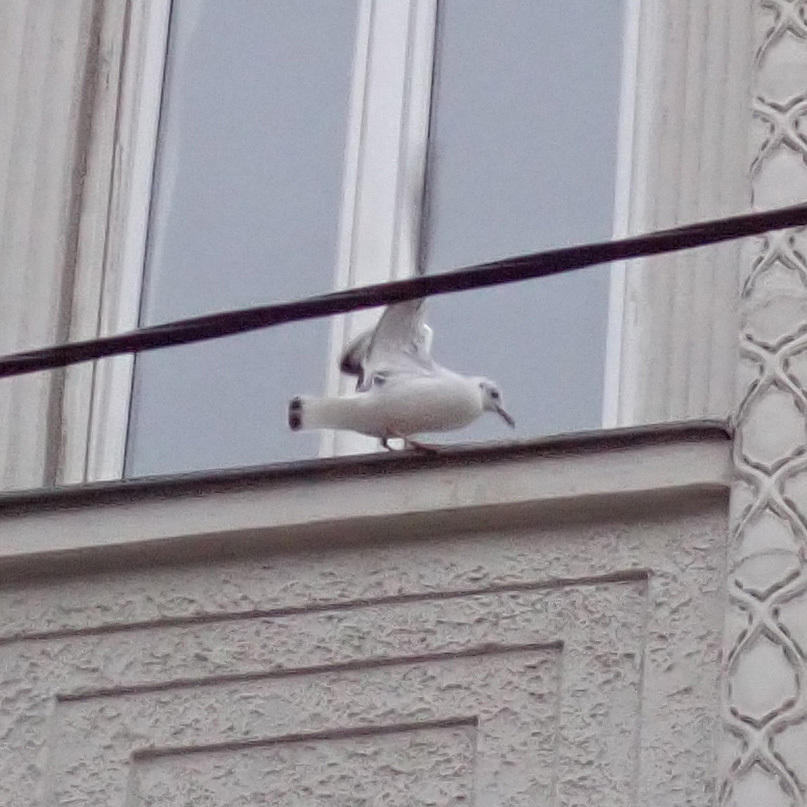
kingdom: Animalia
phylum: Chordata
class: Aves
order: Charadriiformes
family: Laridae
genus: Chroicocephalus
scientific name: Chroicocephalus ridibundus
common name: Black-headed gull
